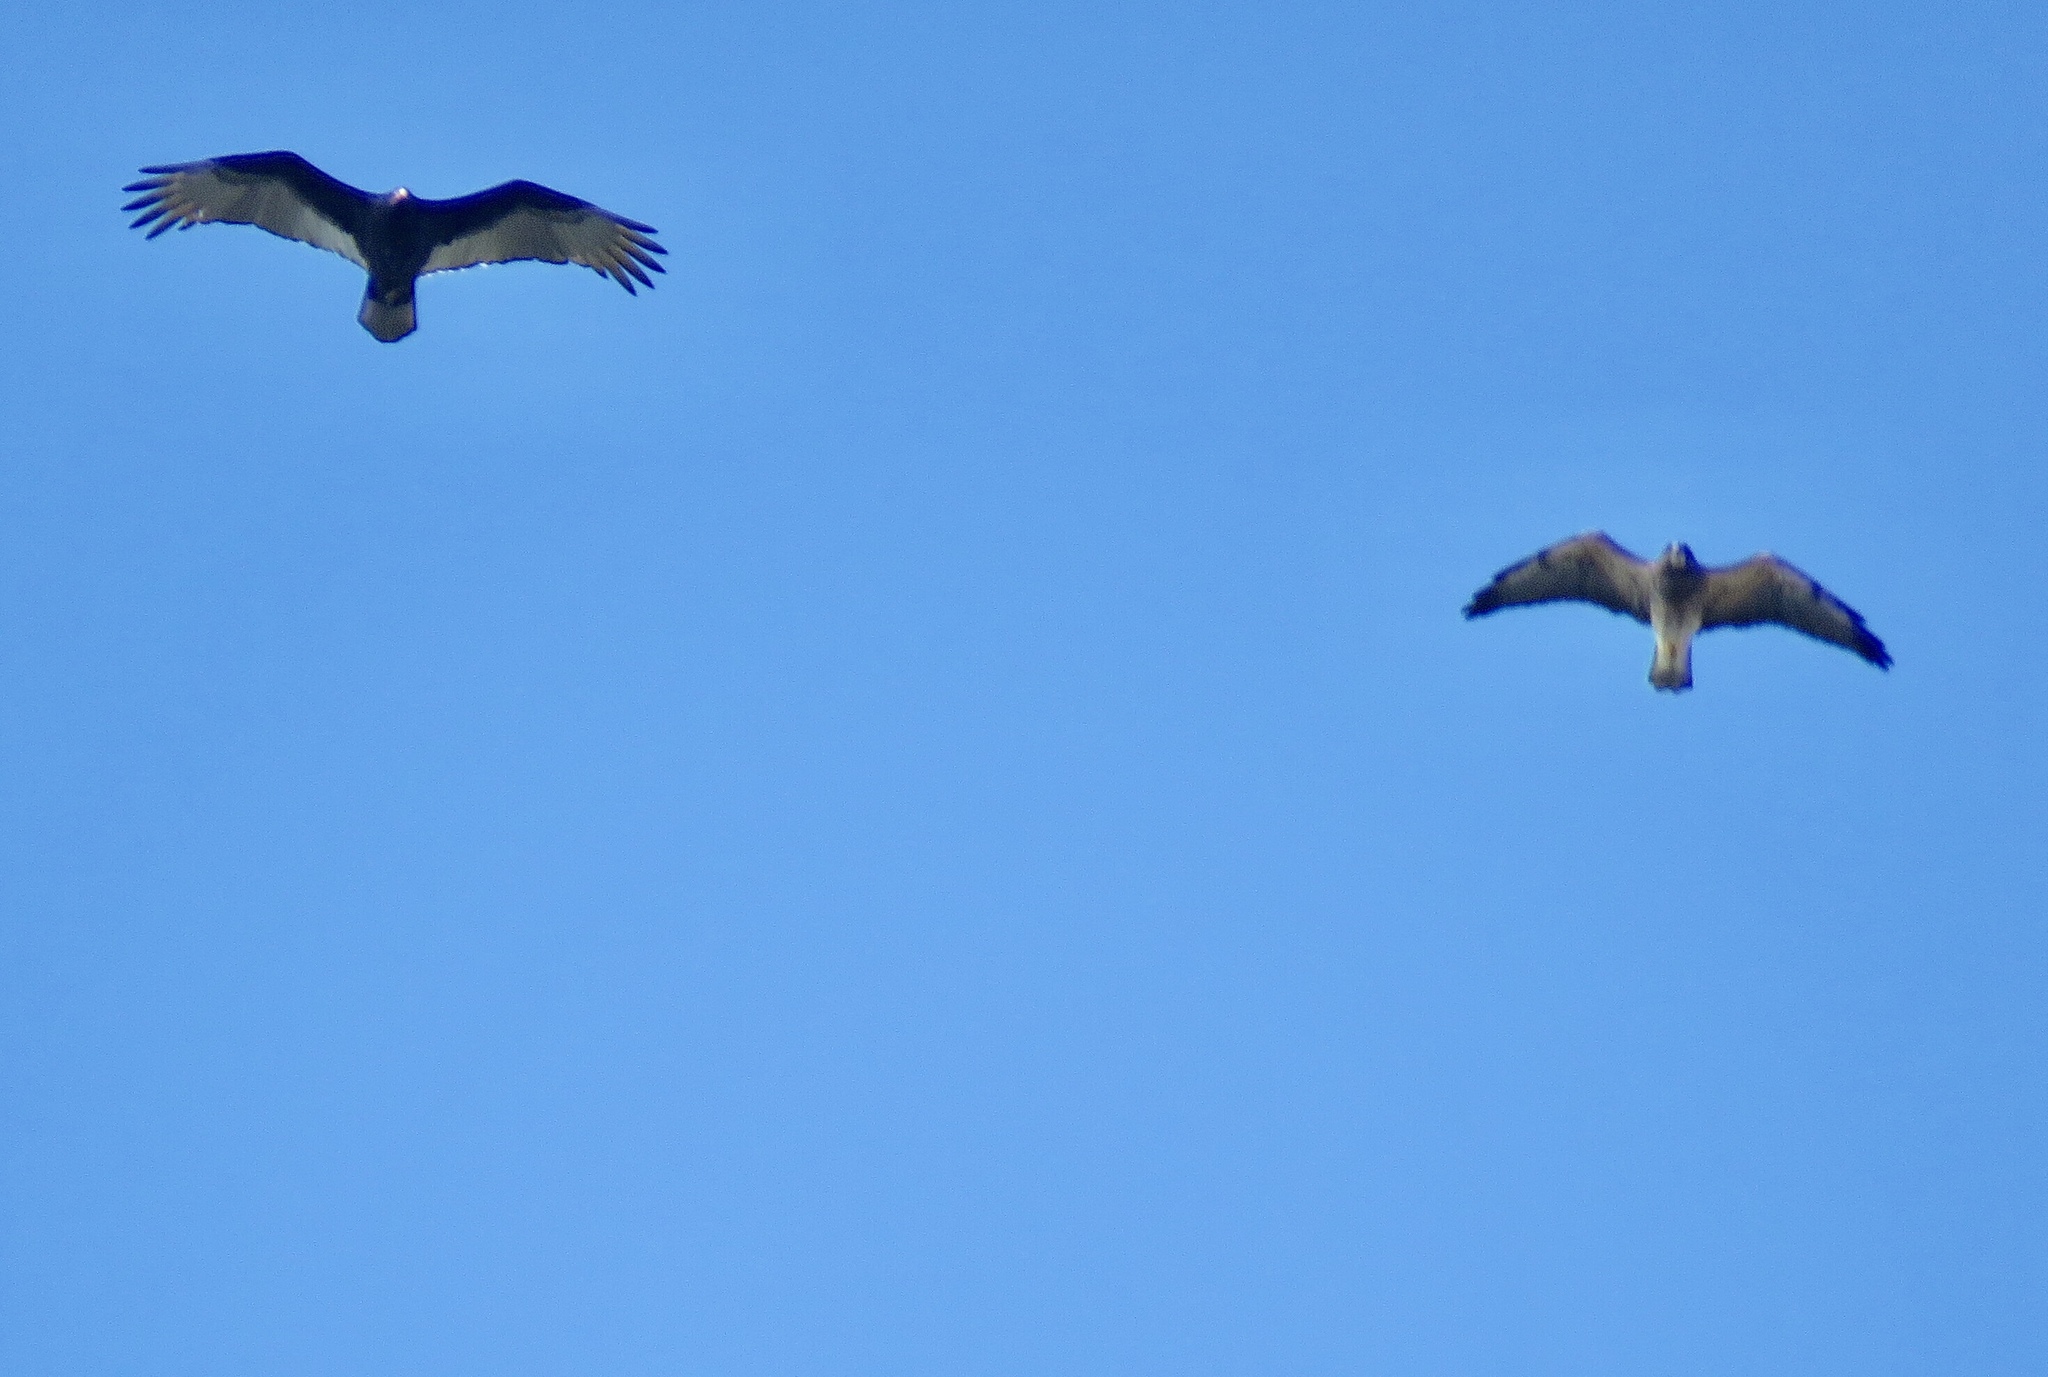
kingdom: Animalia
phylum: Chordata
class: Aves
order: Accipitriformes
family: Cathartidae
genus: Cathartes
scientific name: Cathartes aura
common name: Turkey vulture
